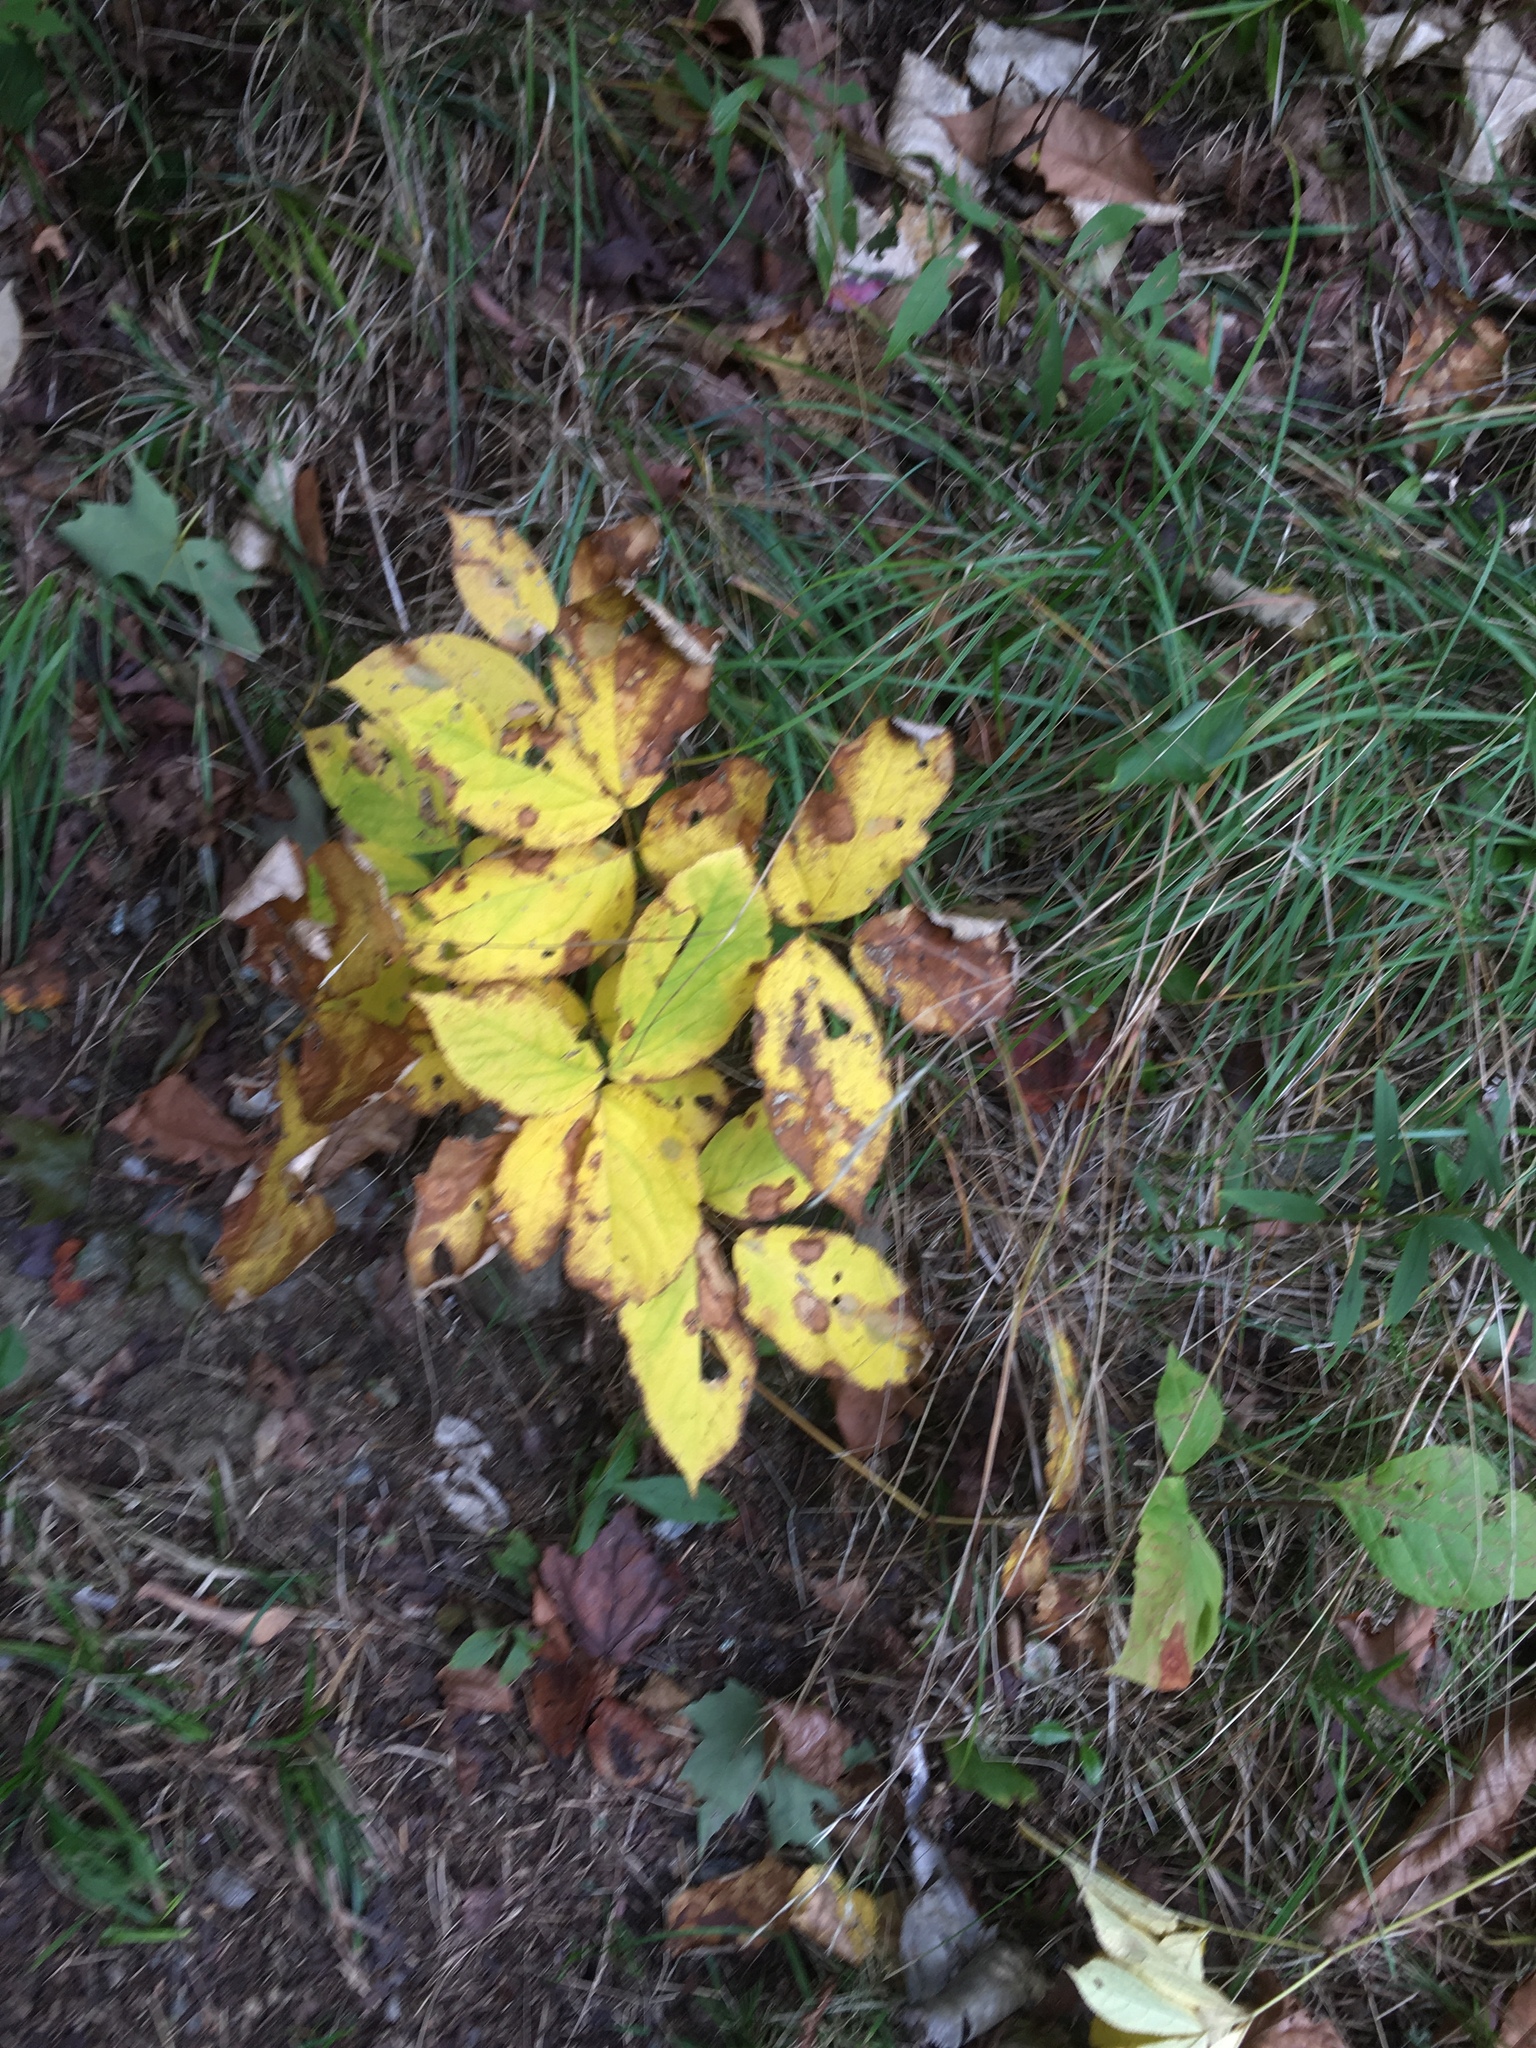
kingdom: Plantae
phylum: Tracheophyta
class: Magnoliopsida
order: Apiales
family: Araliaceae
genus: Aralia
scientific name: Aralia nudicaulis
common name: Wild sarsaparilla
